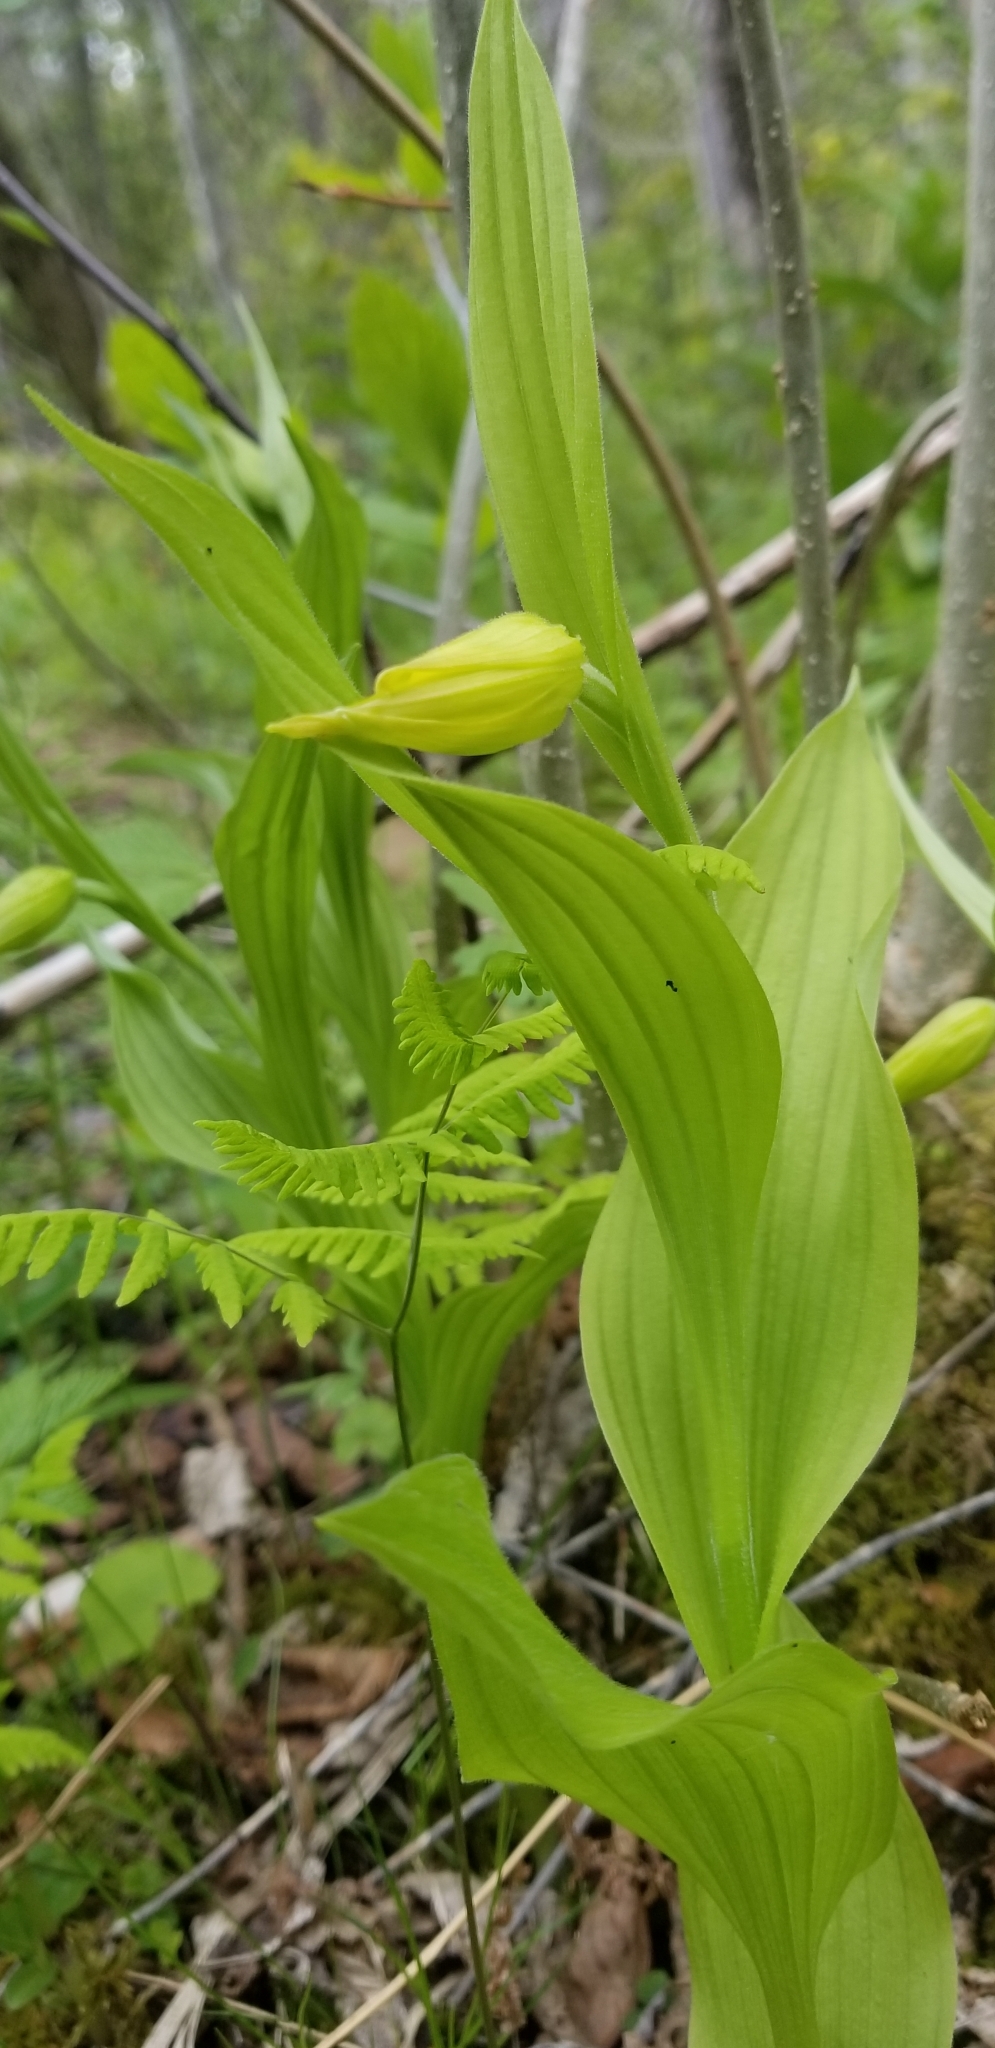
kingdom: Plantae
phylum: Tracheophyta
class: Liliopsida
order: Asparagales
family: Orchidaceae
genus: Cypripedium
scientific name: Cypripedium parviflorum
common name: American yellow lady's-slipper
